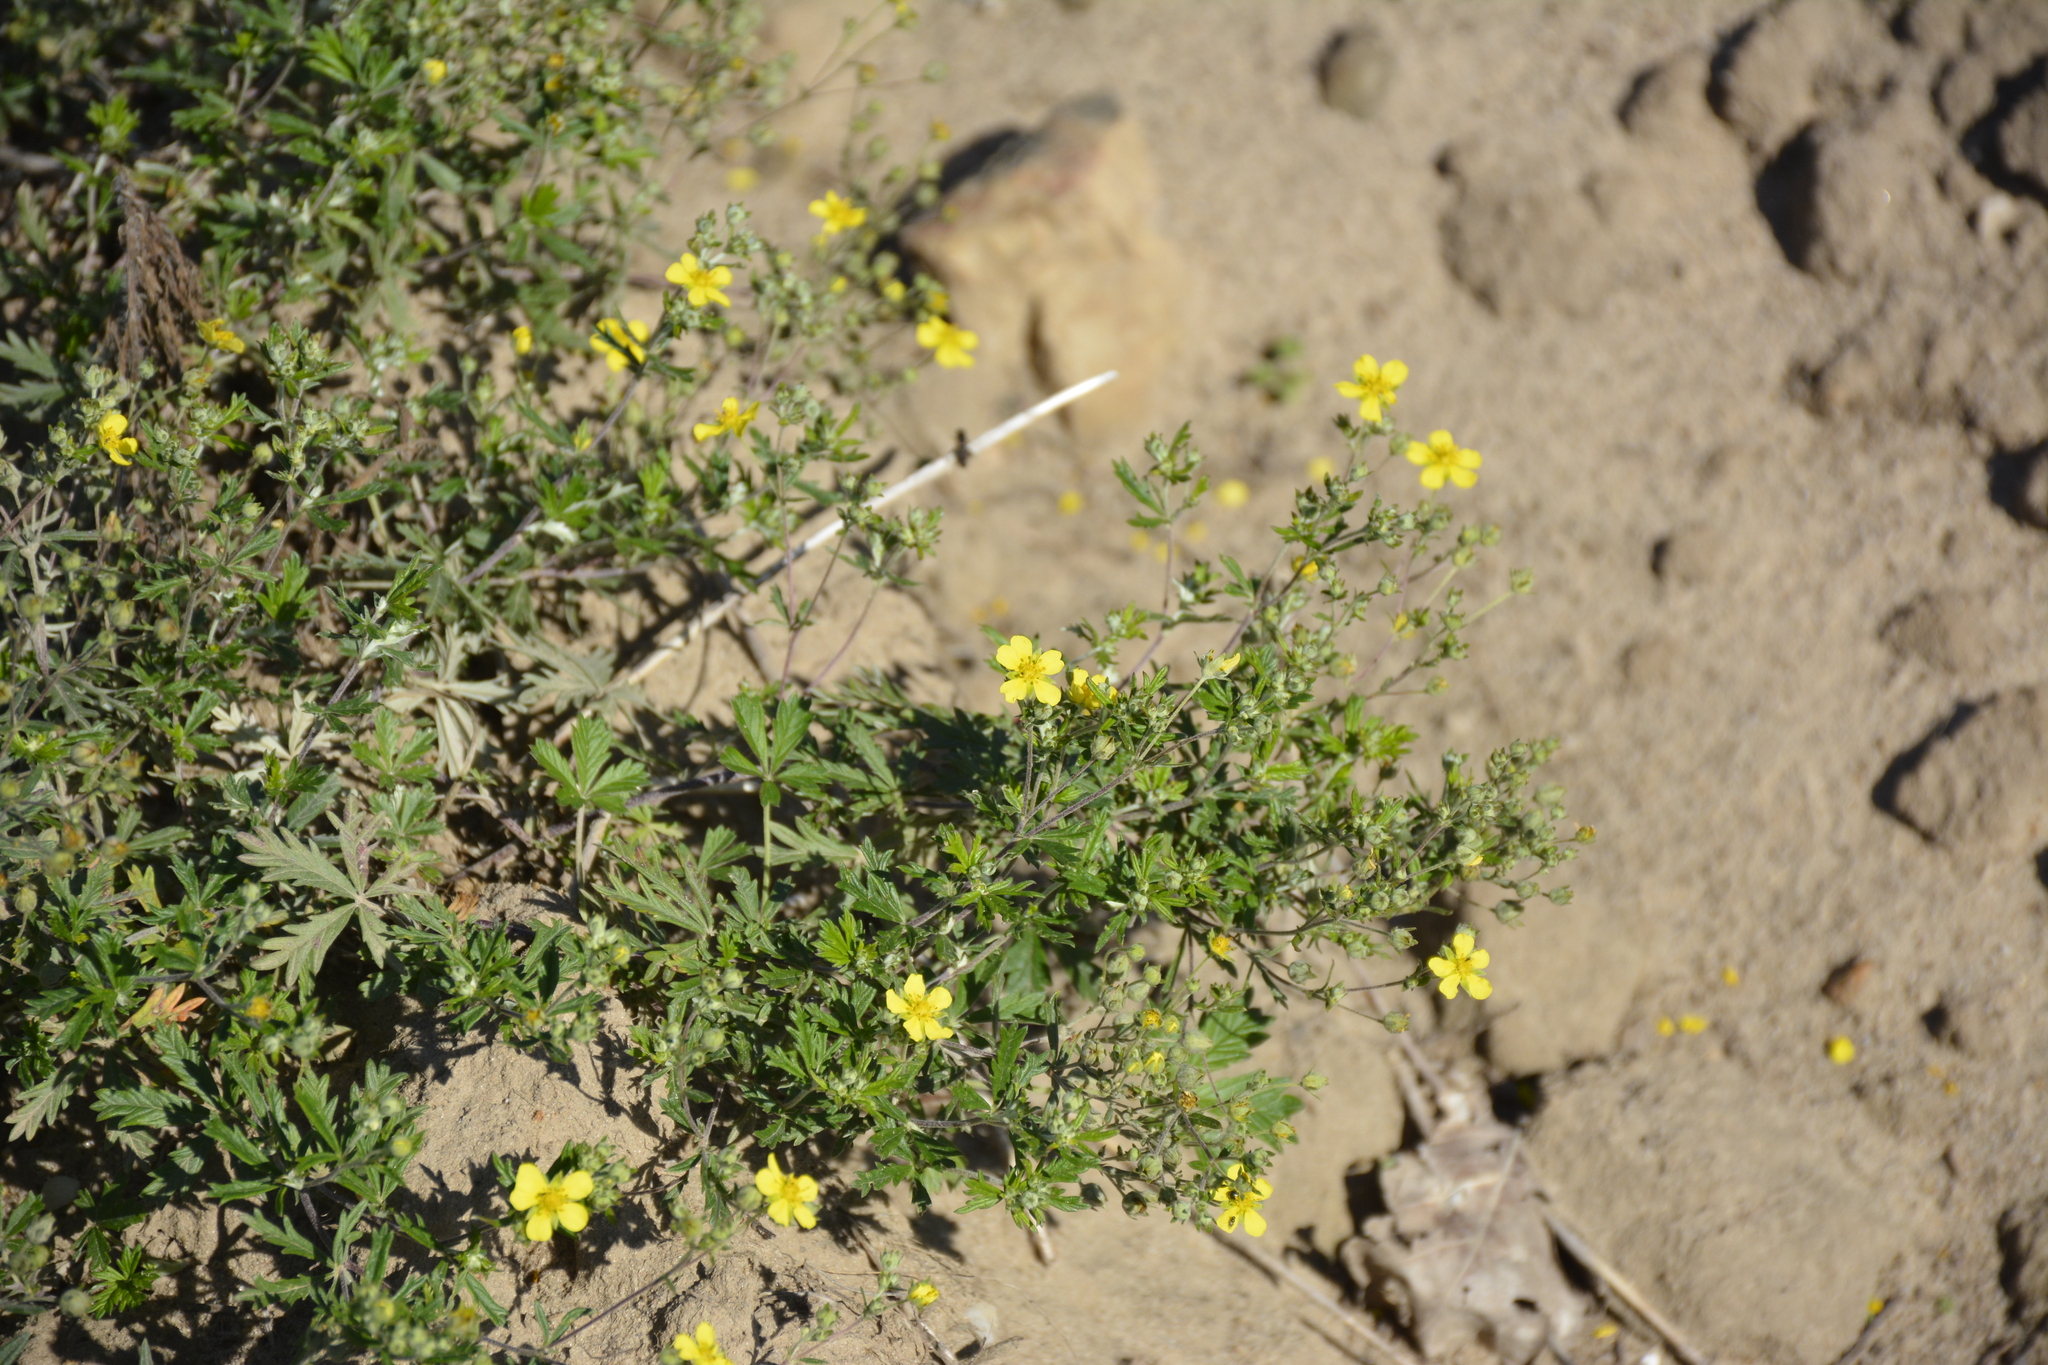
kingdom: Plantae
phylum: Tracheophyta
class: Magnoliopsida
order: Rosales
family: Rosaceae
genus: Potentilla
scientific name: Potentilla argentea
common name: Hoary cinquefoil
